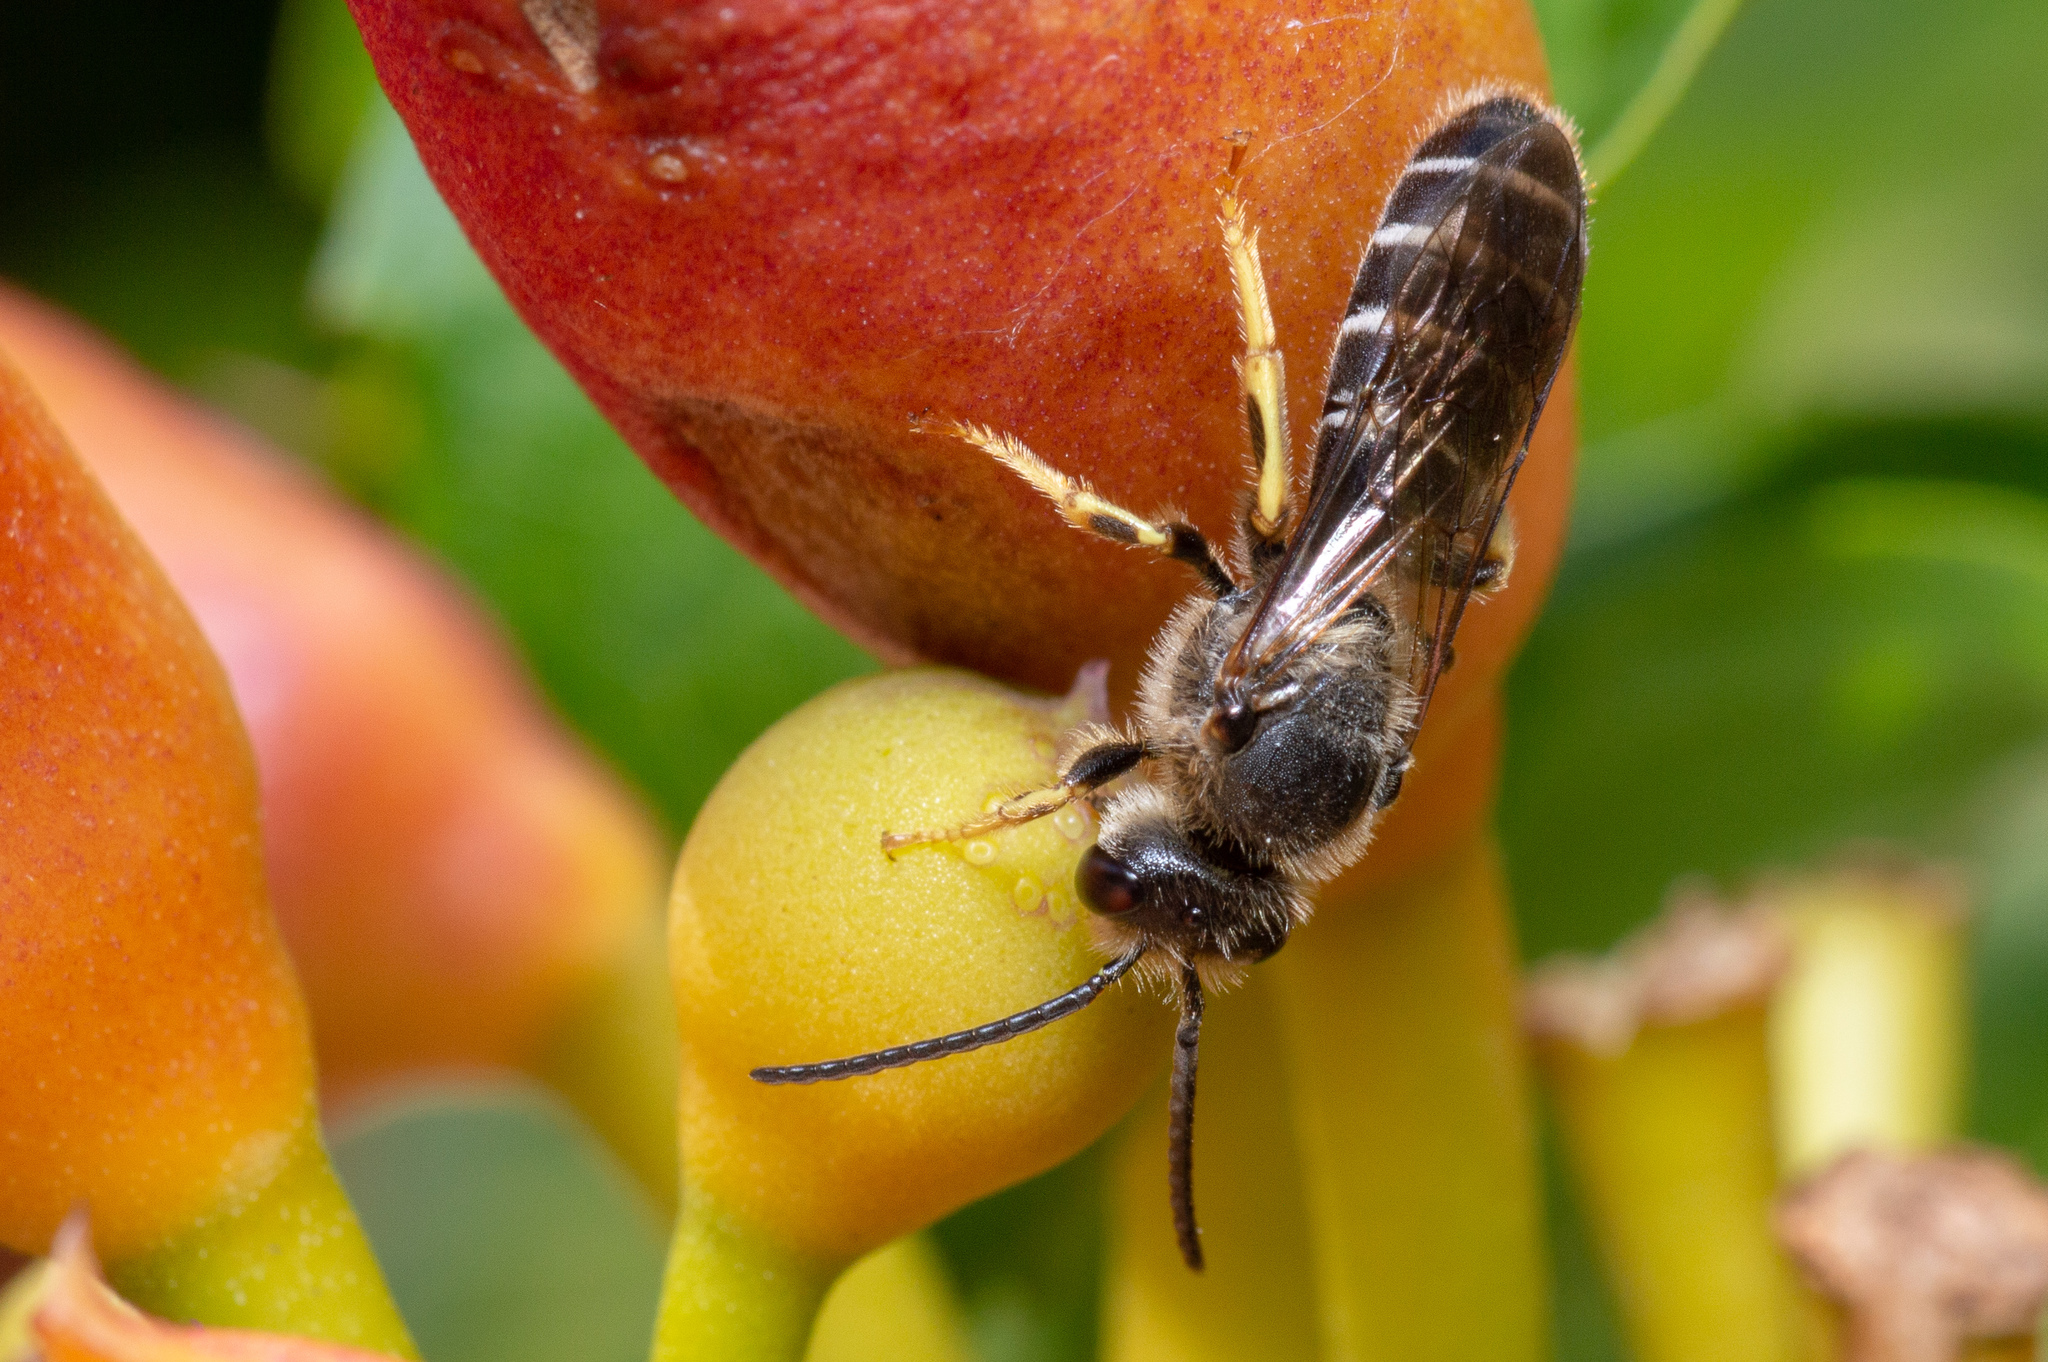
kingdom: Animalia
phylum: Arthropoda
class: Insecta
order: Hymenoptera
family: Halictidae
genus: Halictus
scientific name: Halictus rubicundus
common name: Orange-legged furrow bee
